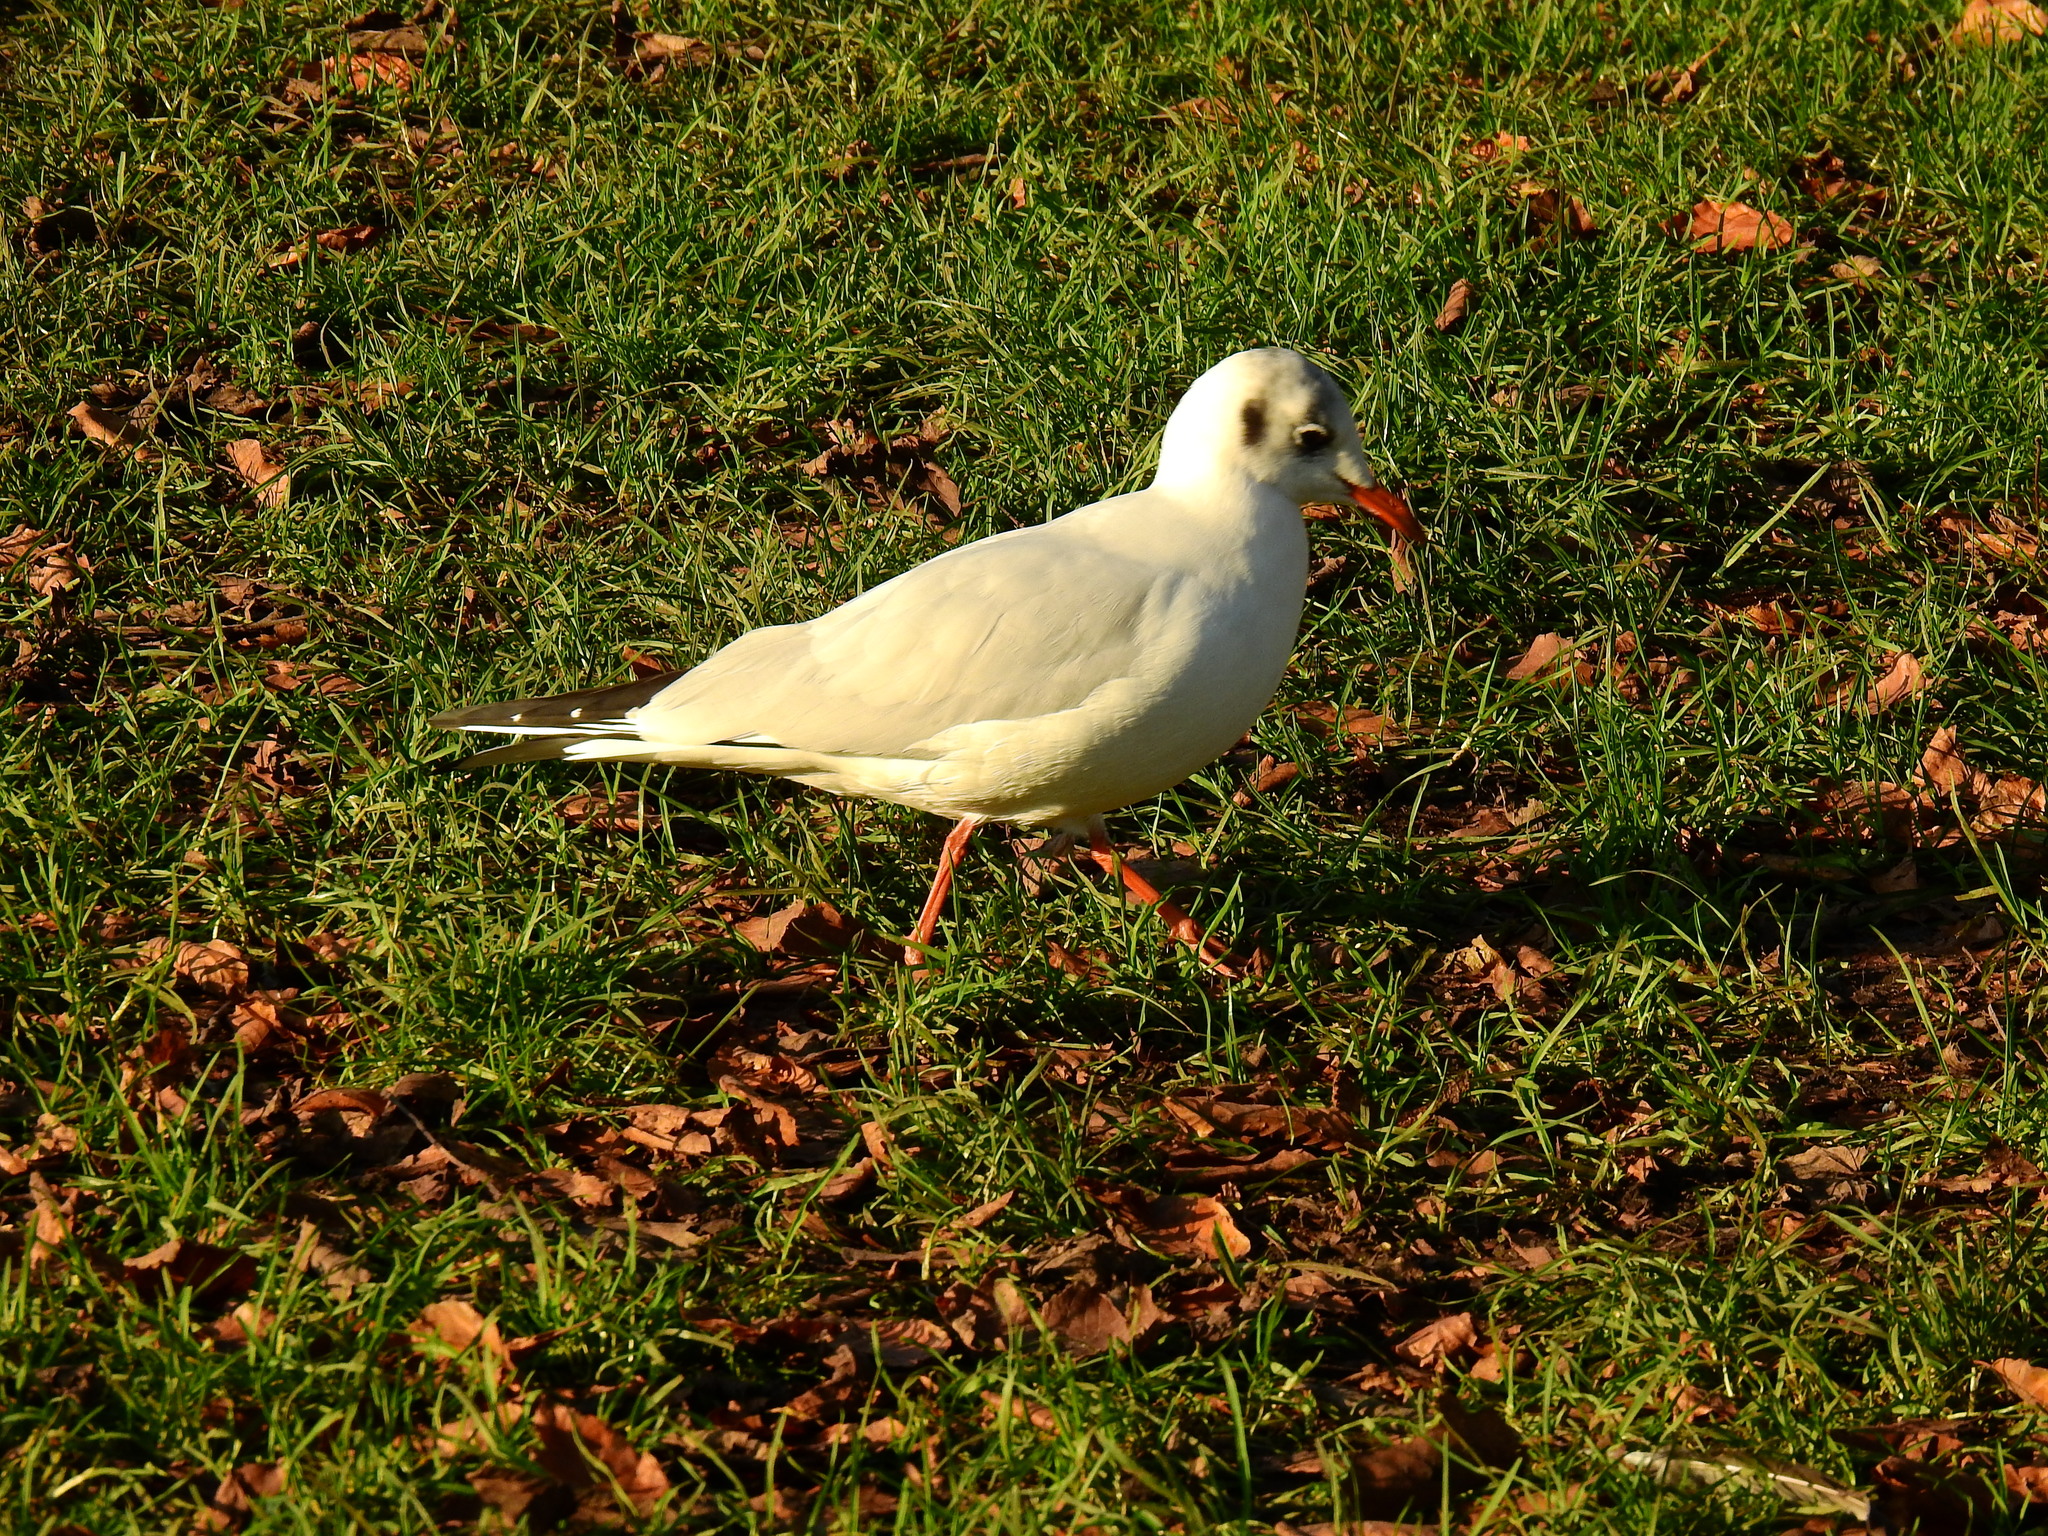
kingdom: Animalia
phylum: Chordata
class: Aves
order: Charadriiformes
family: Laridae
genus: Chroicocephalus
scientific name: Chroicocephalus ridibundus
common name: Black-headed gull
